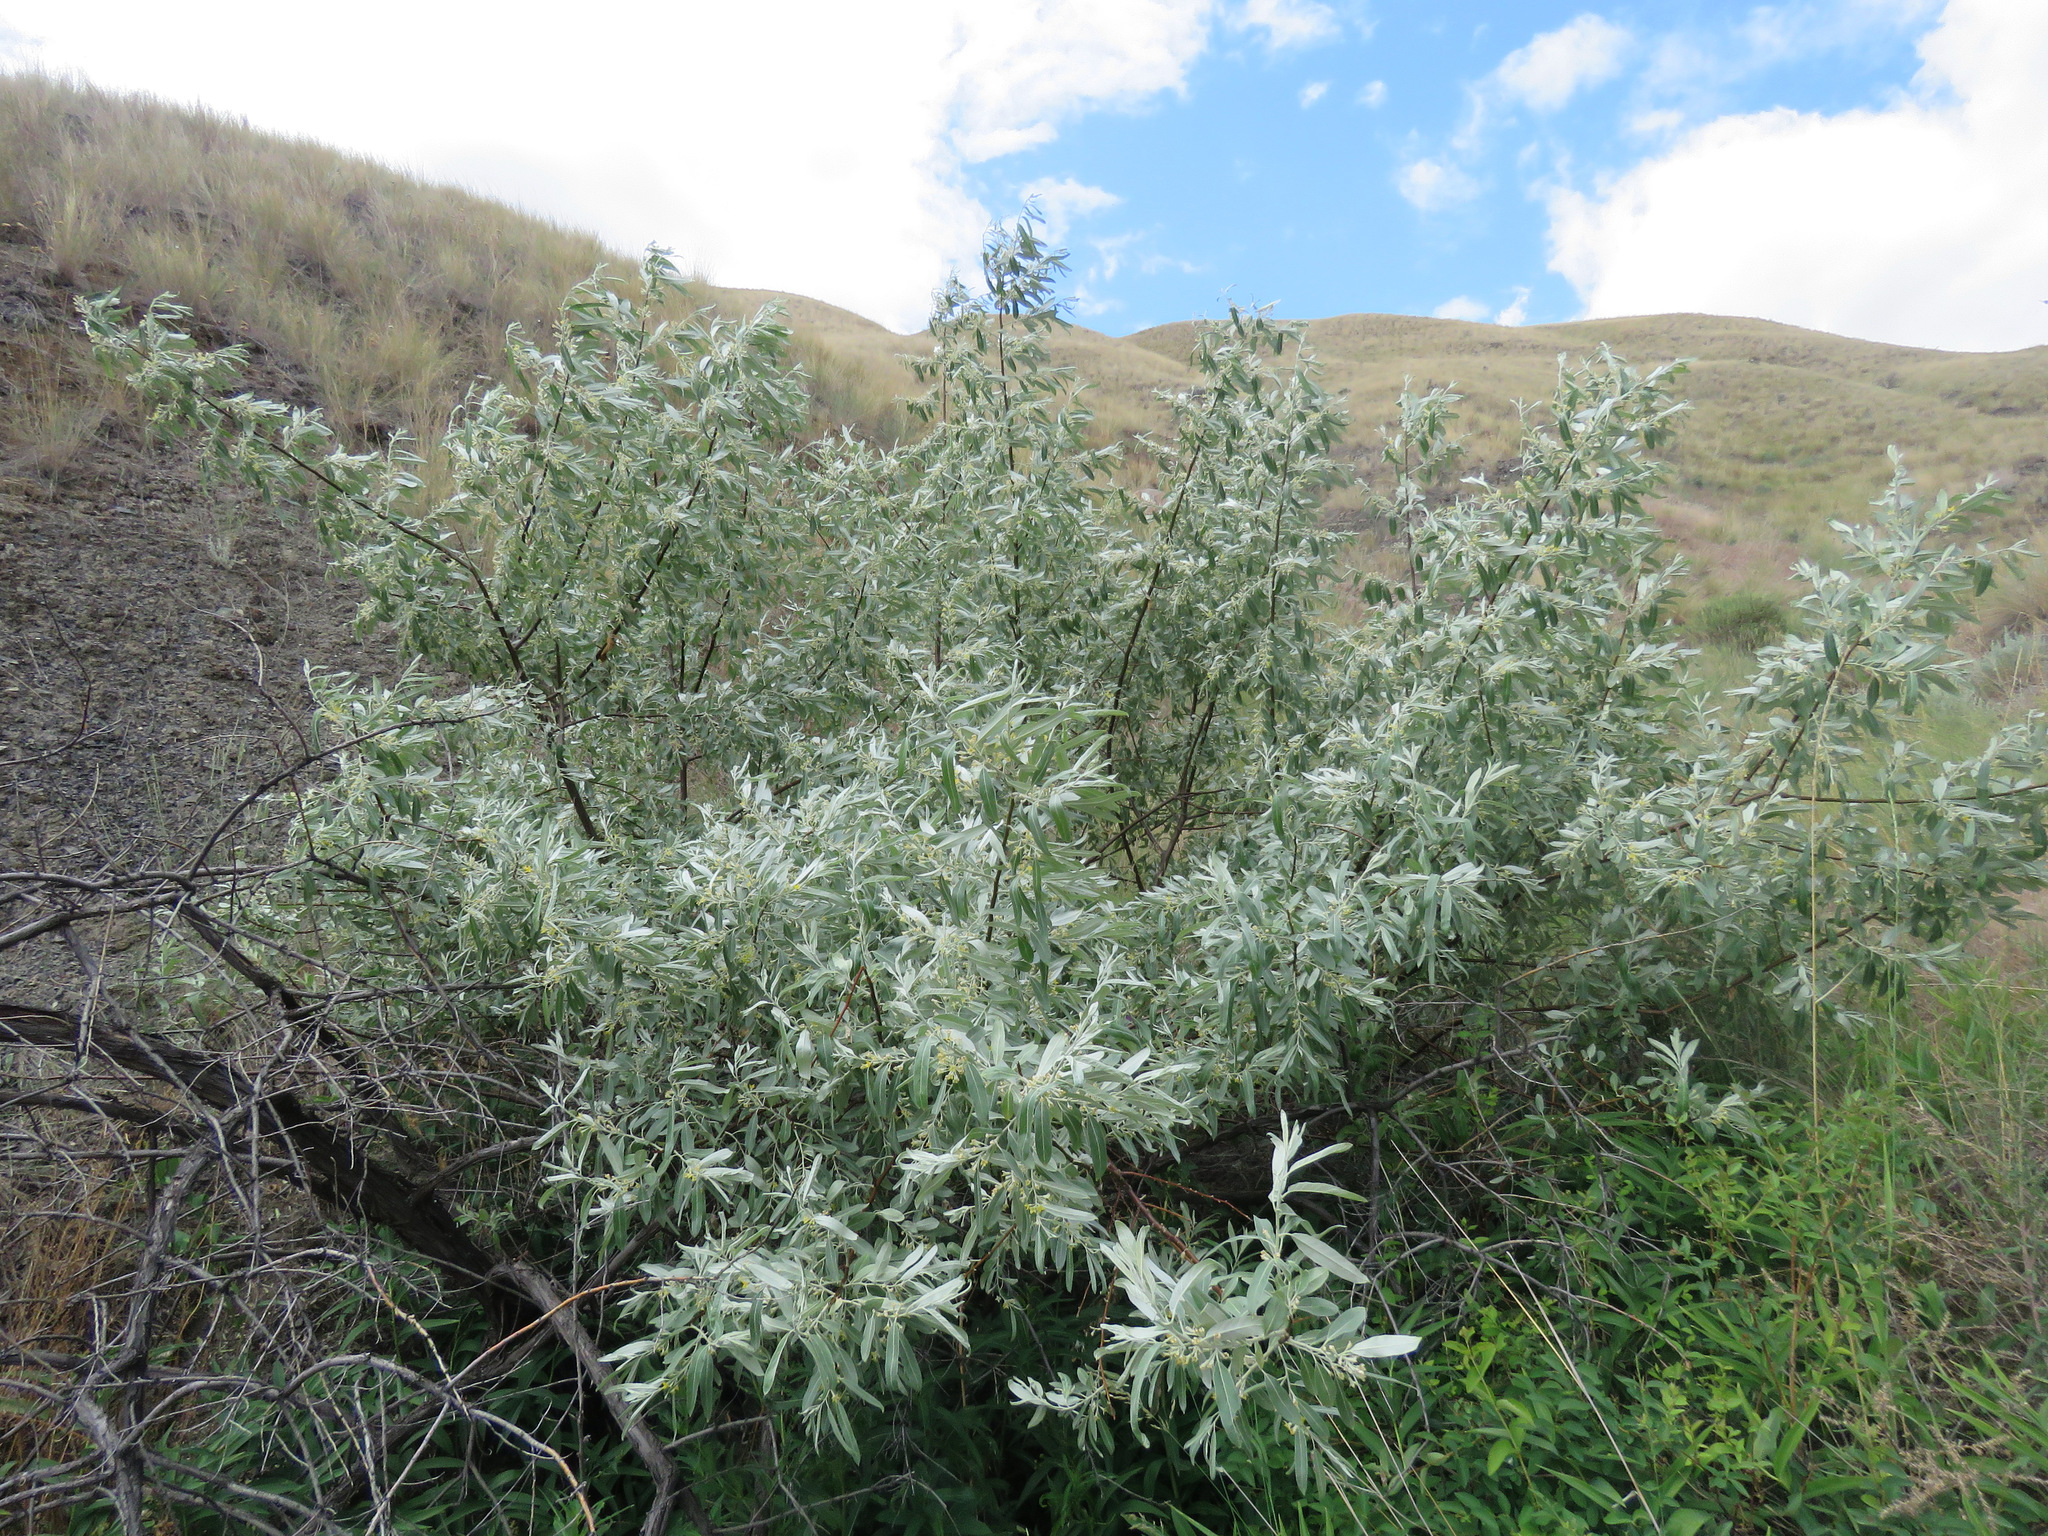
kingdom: Plantae
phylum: Tracheophyta
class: Magnoliopsida
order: Rosales
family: Elaeagnaceae
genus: Elaeagnus
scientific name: Elaeagnus angustifolia
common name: Russian olive
